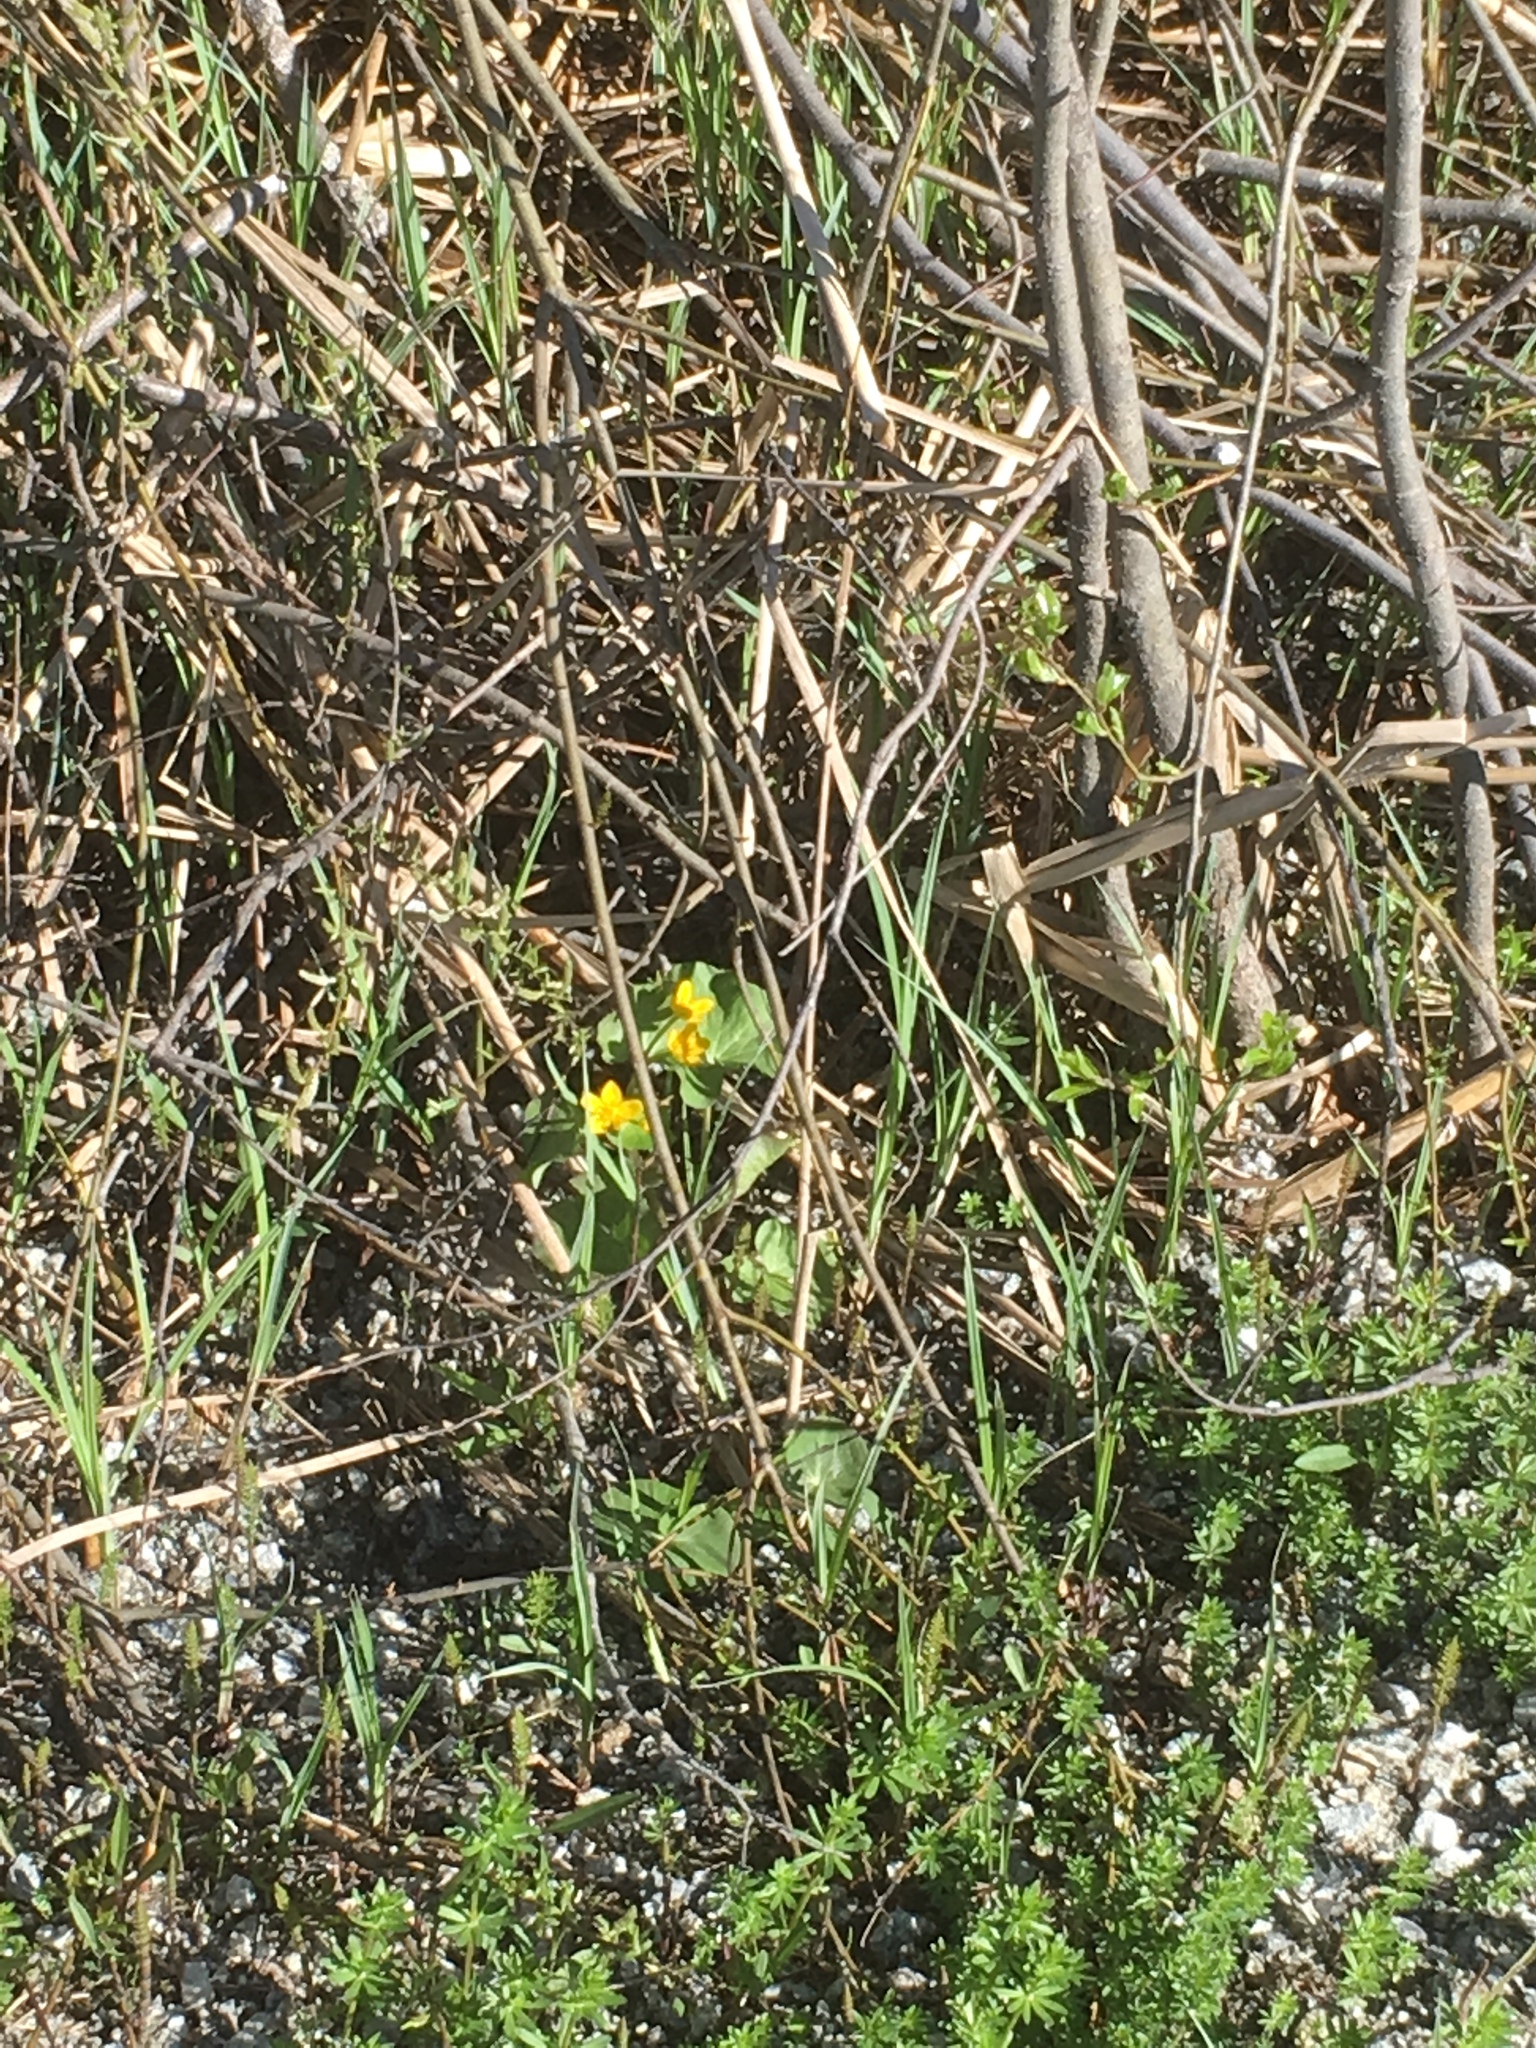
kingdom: Plantae
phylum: Tracheophyta
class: Magnoliopsida
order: Ranunculales
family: Ranunculaceae
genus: Caltha
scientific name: Caltha palustris
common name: Marsh marigold
